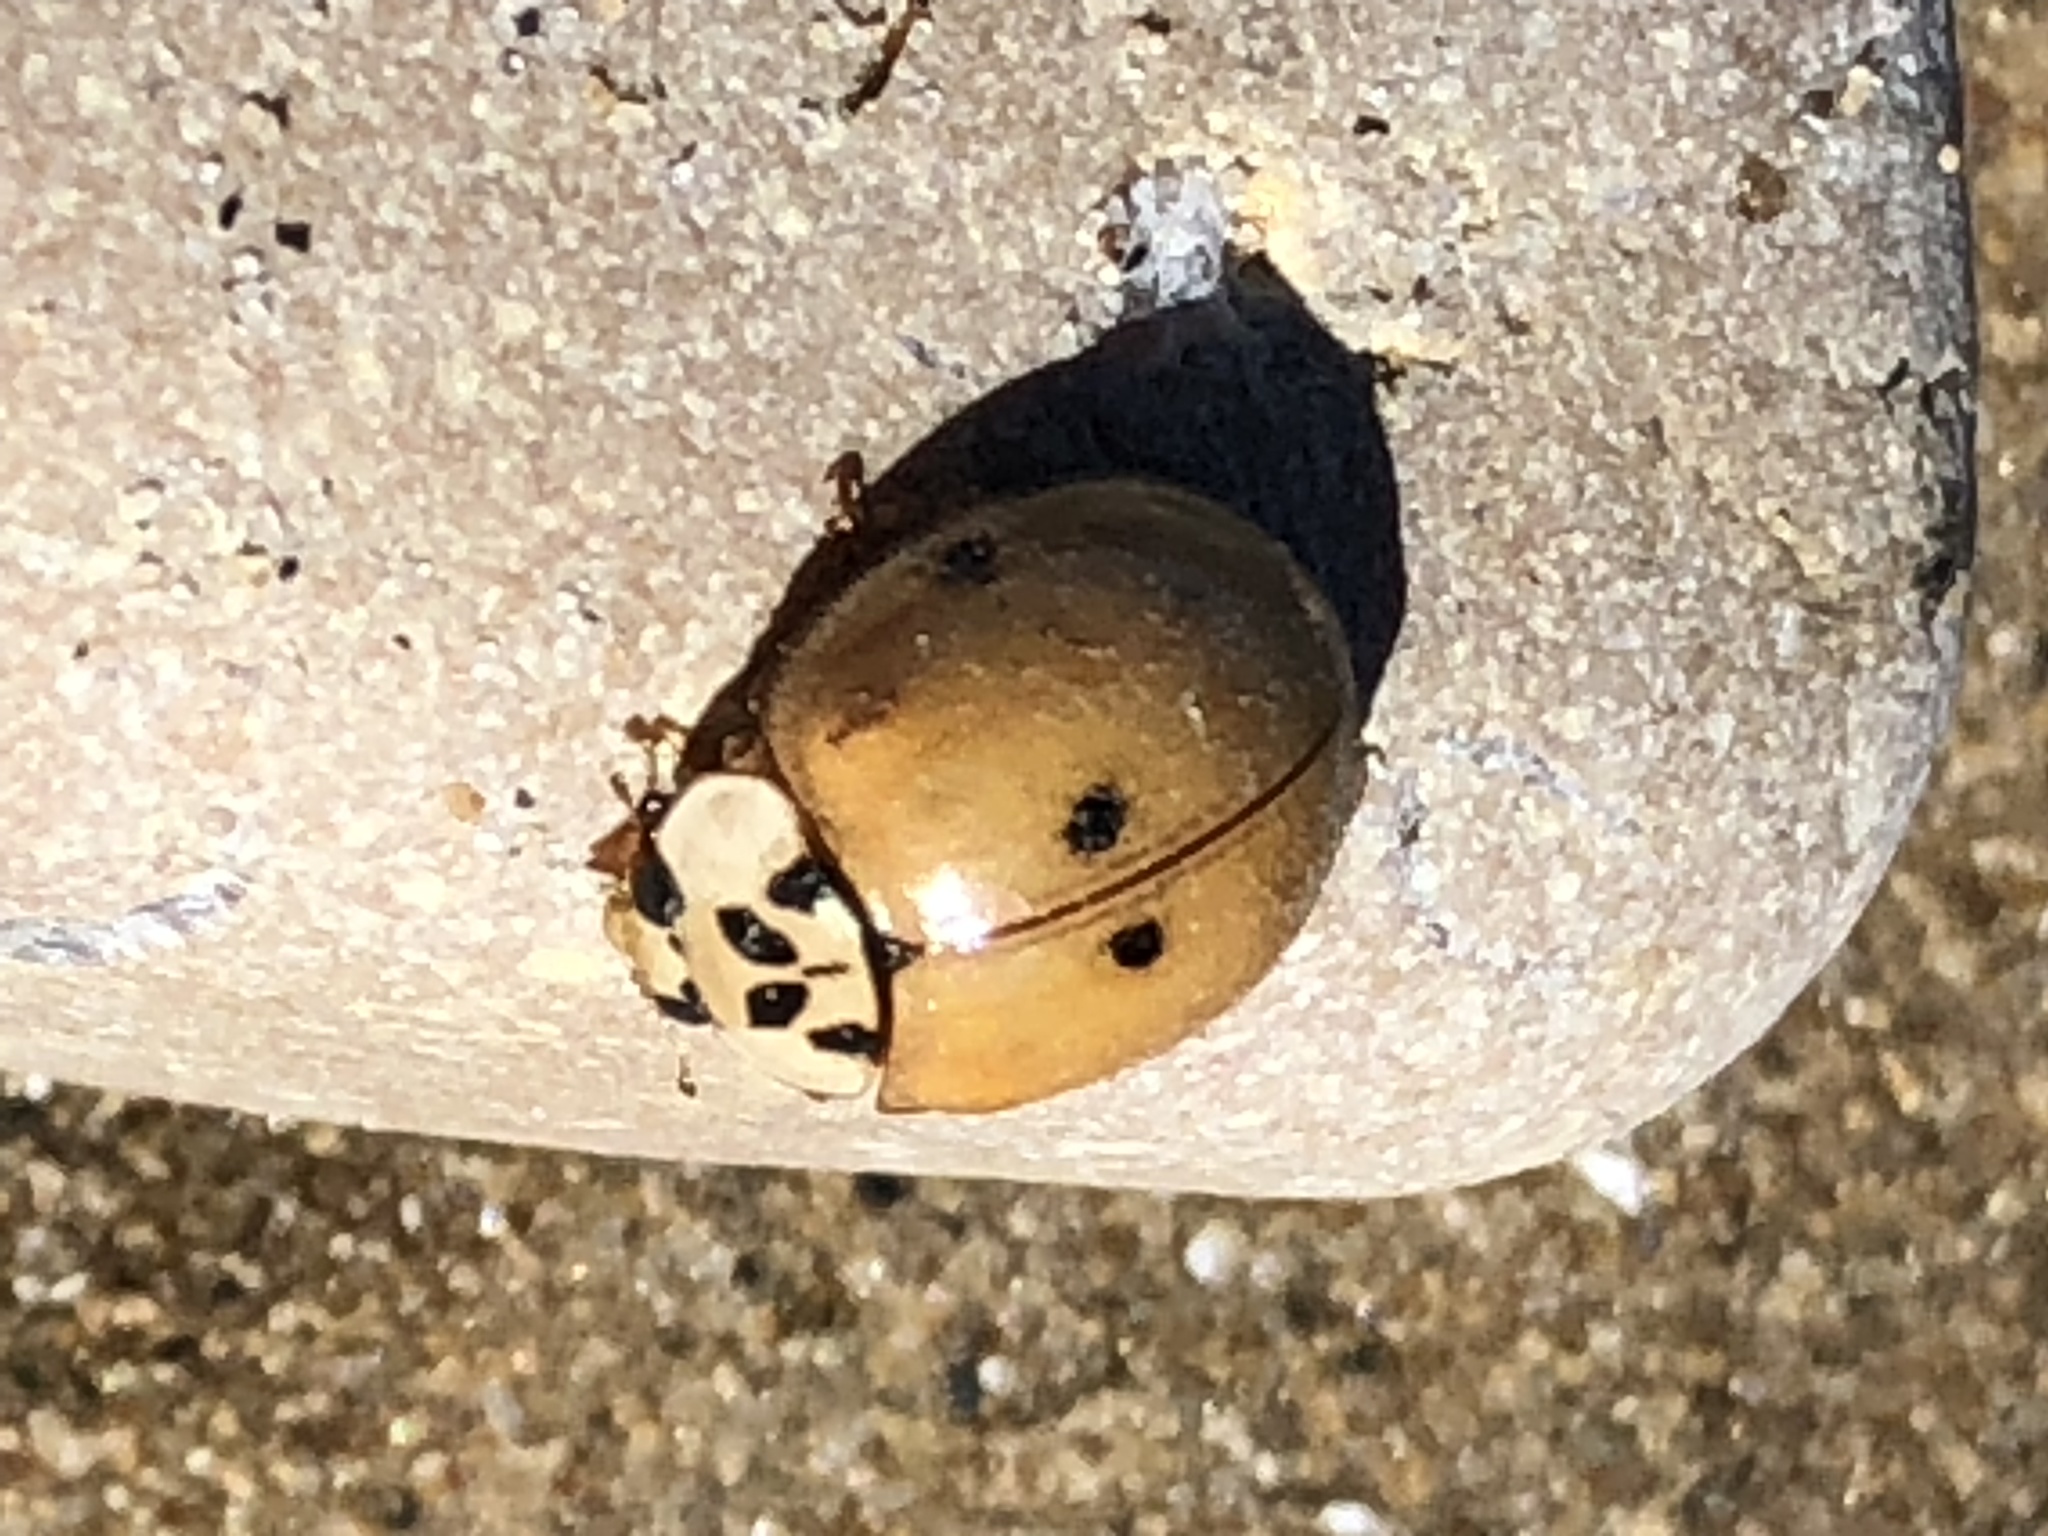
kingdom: Animalia
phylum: Arthropoda
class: Insecta
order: Coleoptera
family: Coccinellidae
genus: Harmonia
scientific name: Harmonia axyridis
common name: Harlequin ladybird
